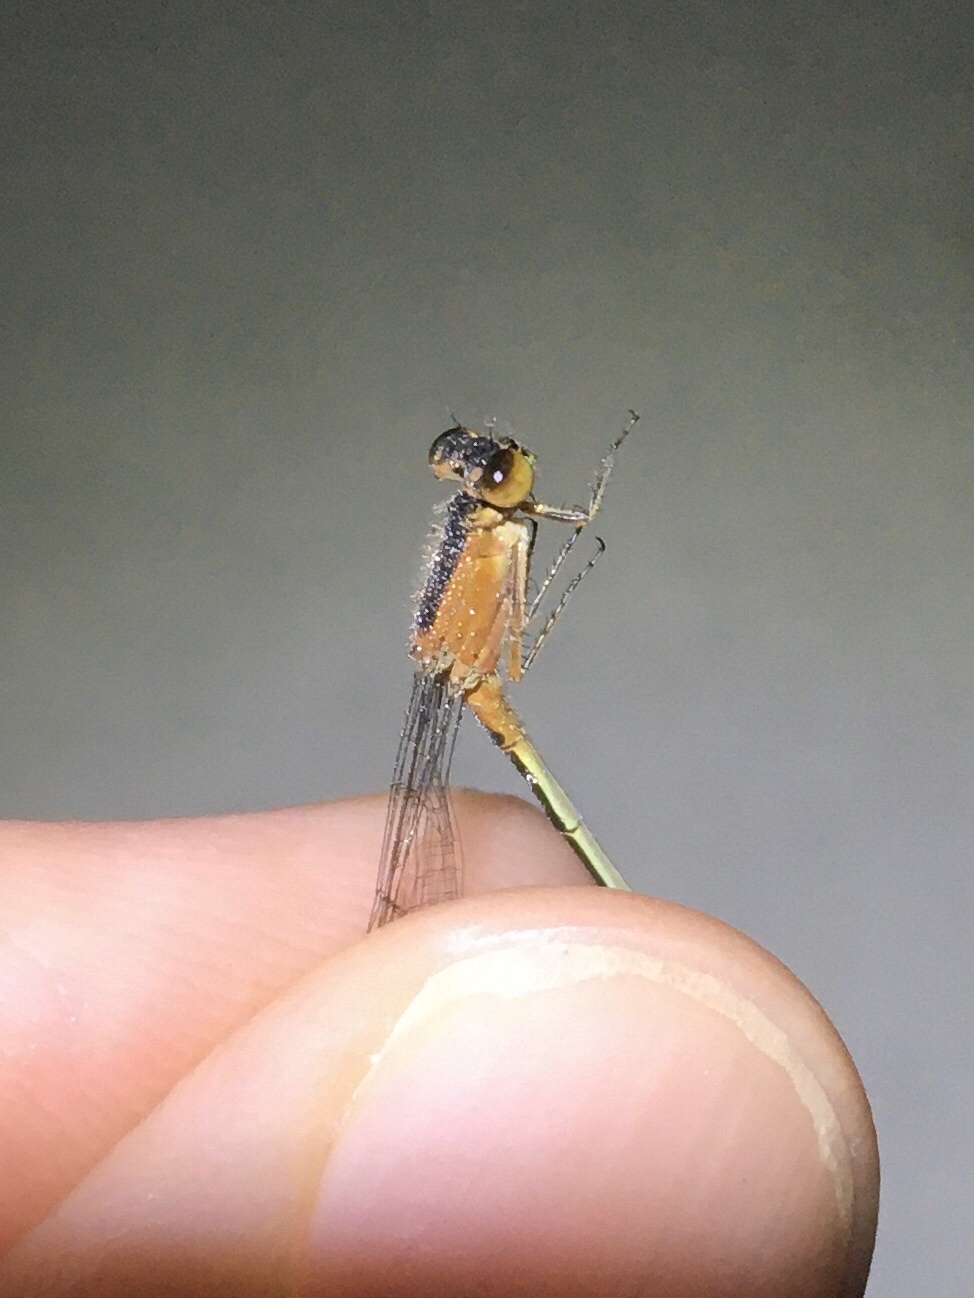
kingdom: Animalia
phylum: Arthropoda
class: Insecta
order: Odonata
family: Coenagrionidae
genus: Ischnura
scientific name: Ischnura ramburii
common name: Rambur's forktail
